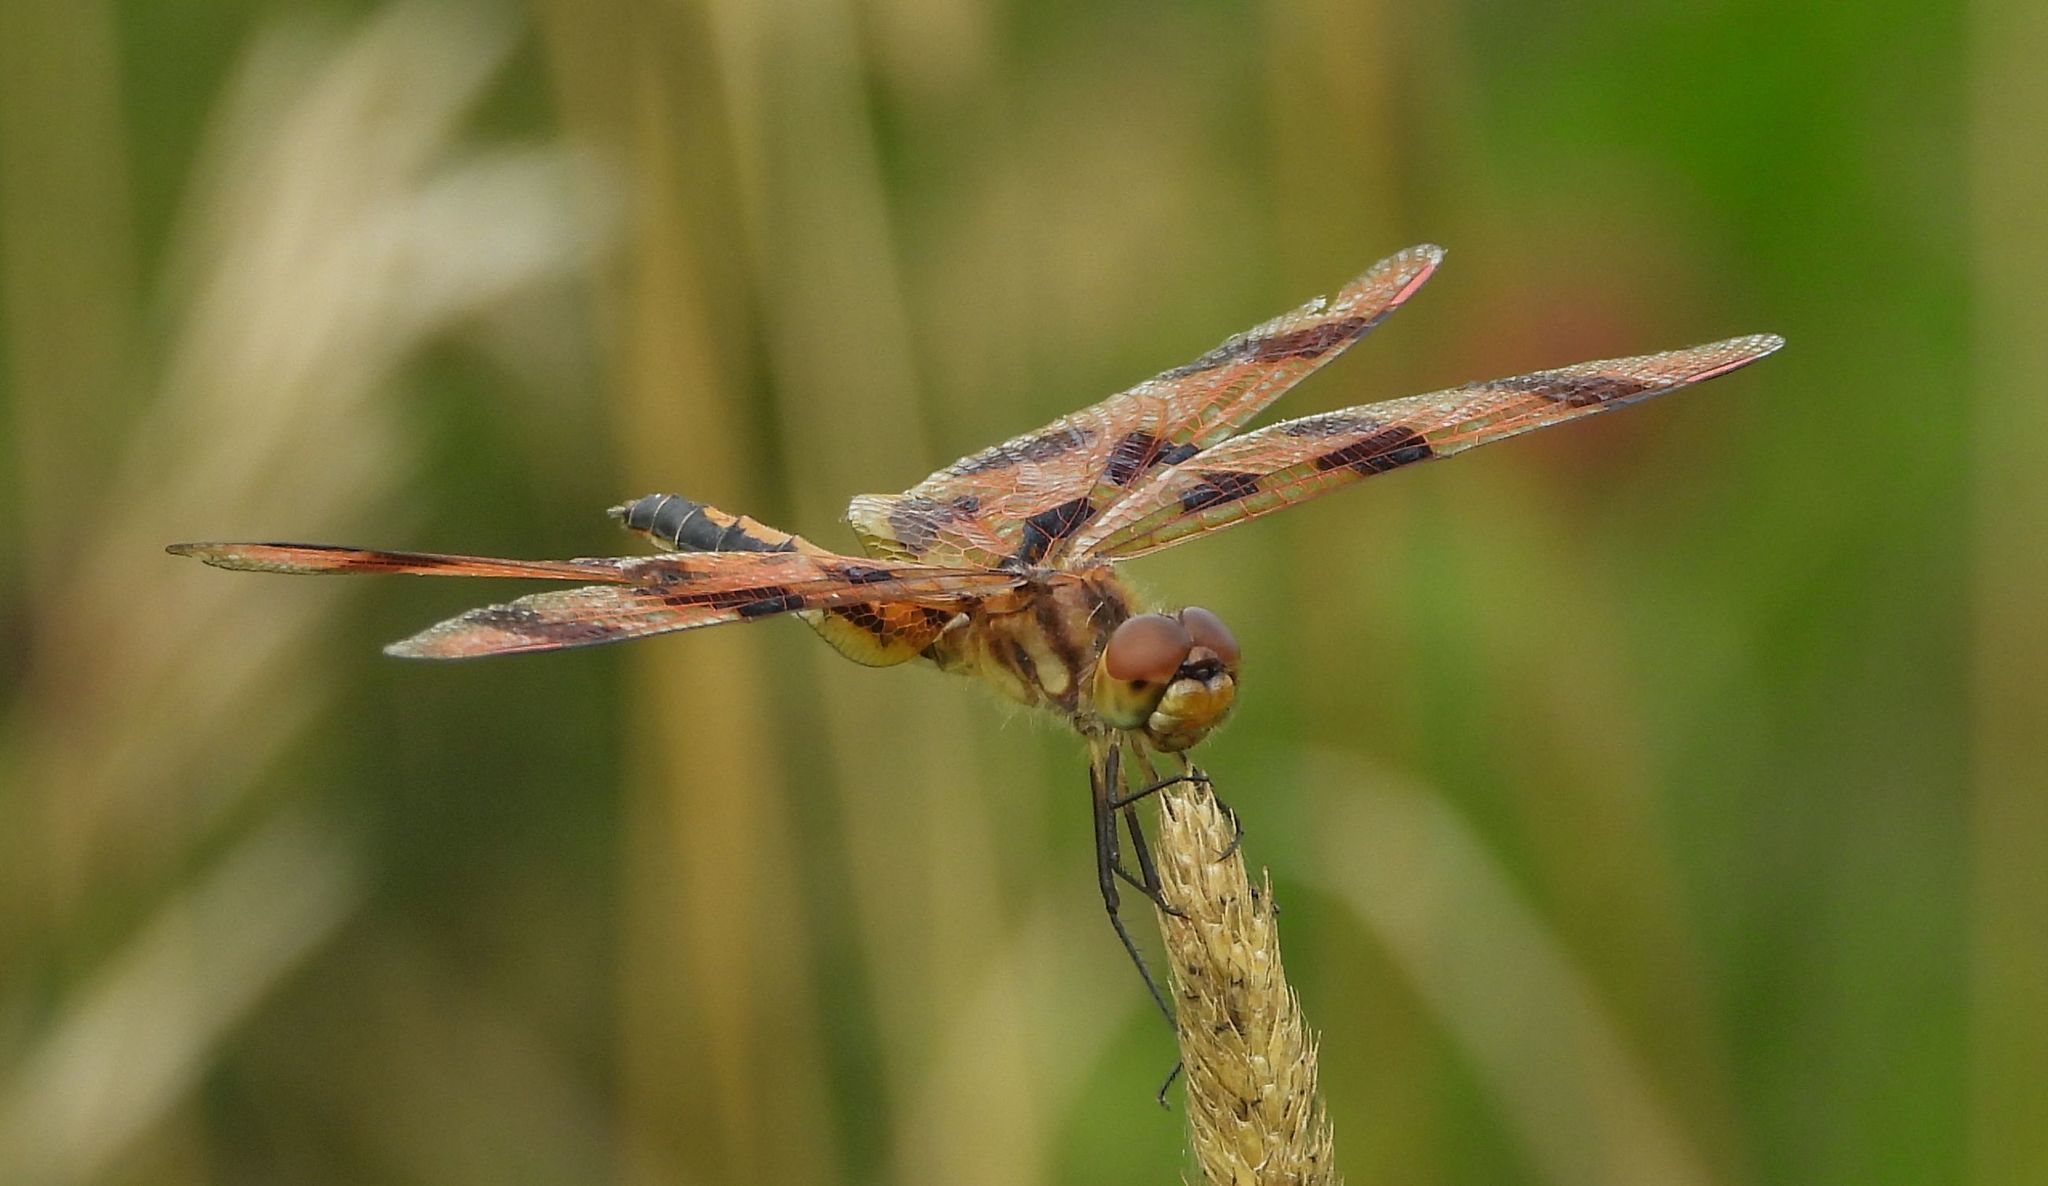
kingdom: Animalia
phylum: Arthropoda
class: Insecta
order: Odonata
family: Libellulidae
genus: Celithemis
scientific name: Celithemis eponina
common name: Halloween pennant
